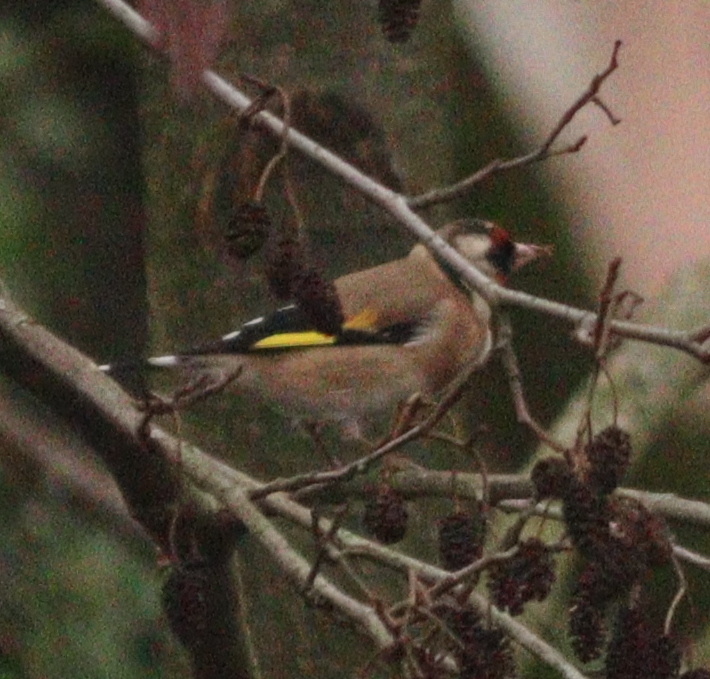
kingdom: Animalia
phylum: Chordata
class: Aves
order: Passeriformes
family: Fringillidae
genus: Carduelis
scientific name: Carduelis carduelis
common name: European goldfinch
